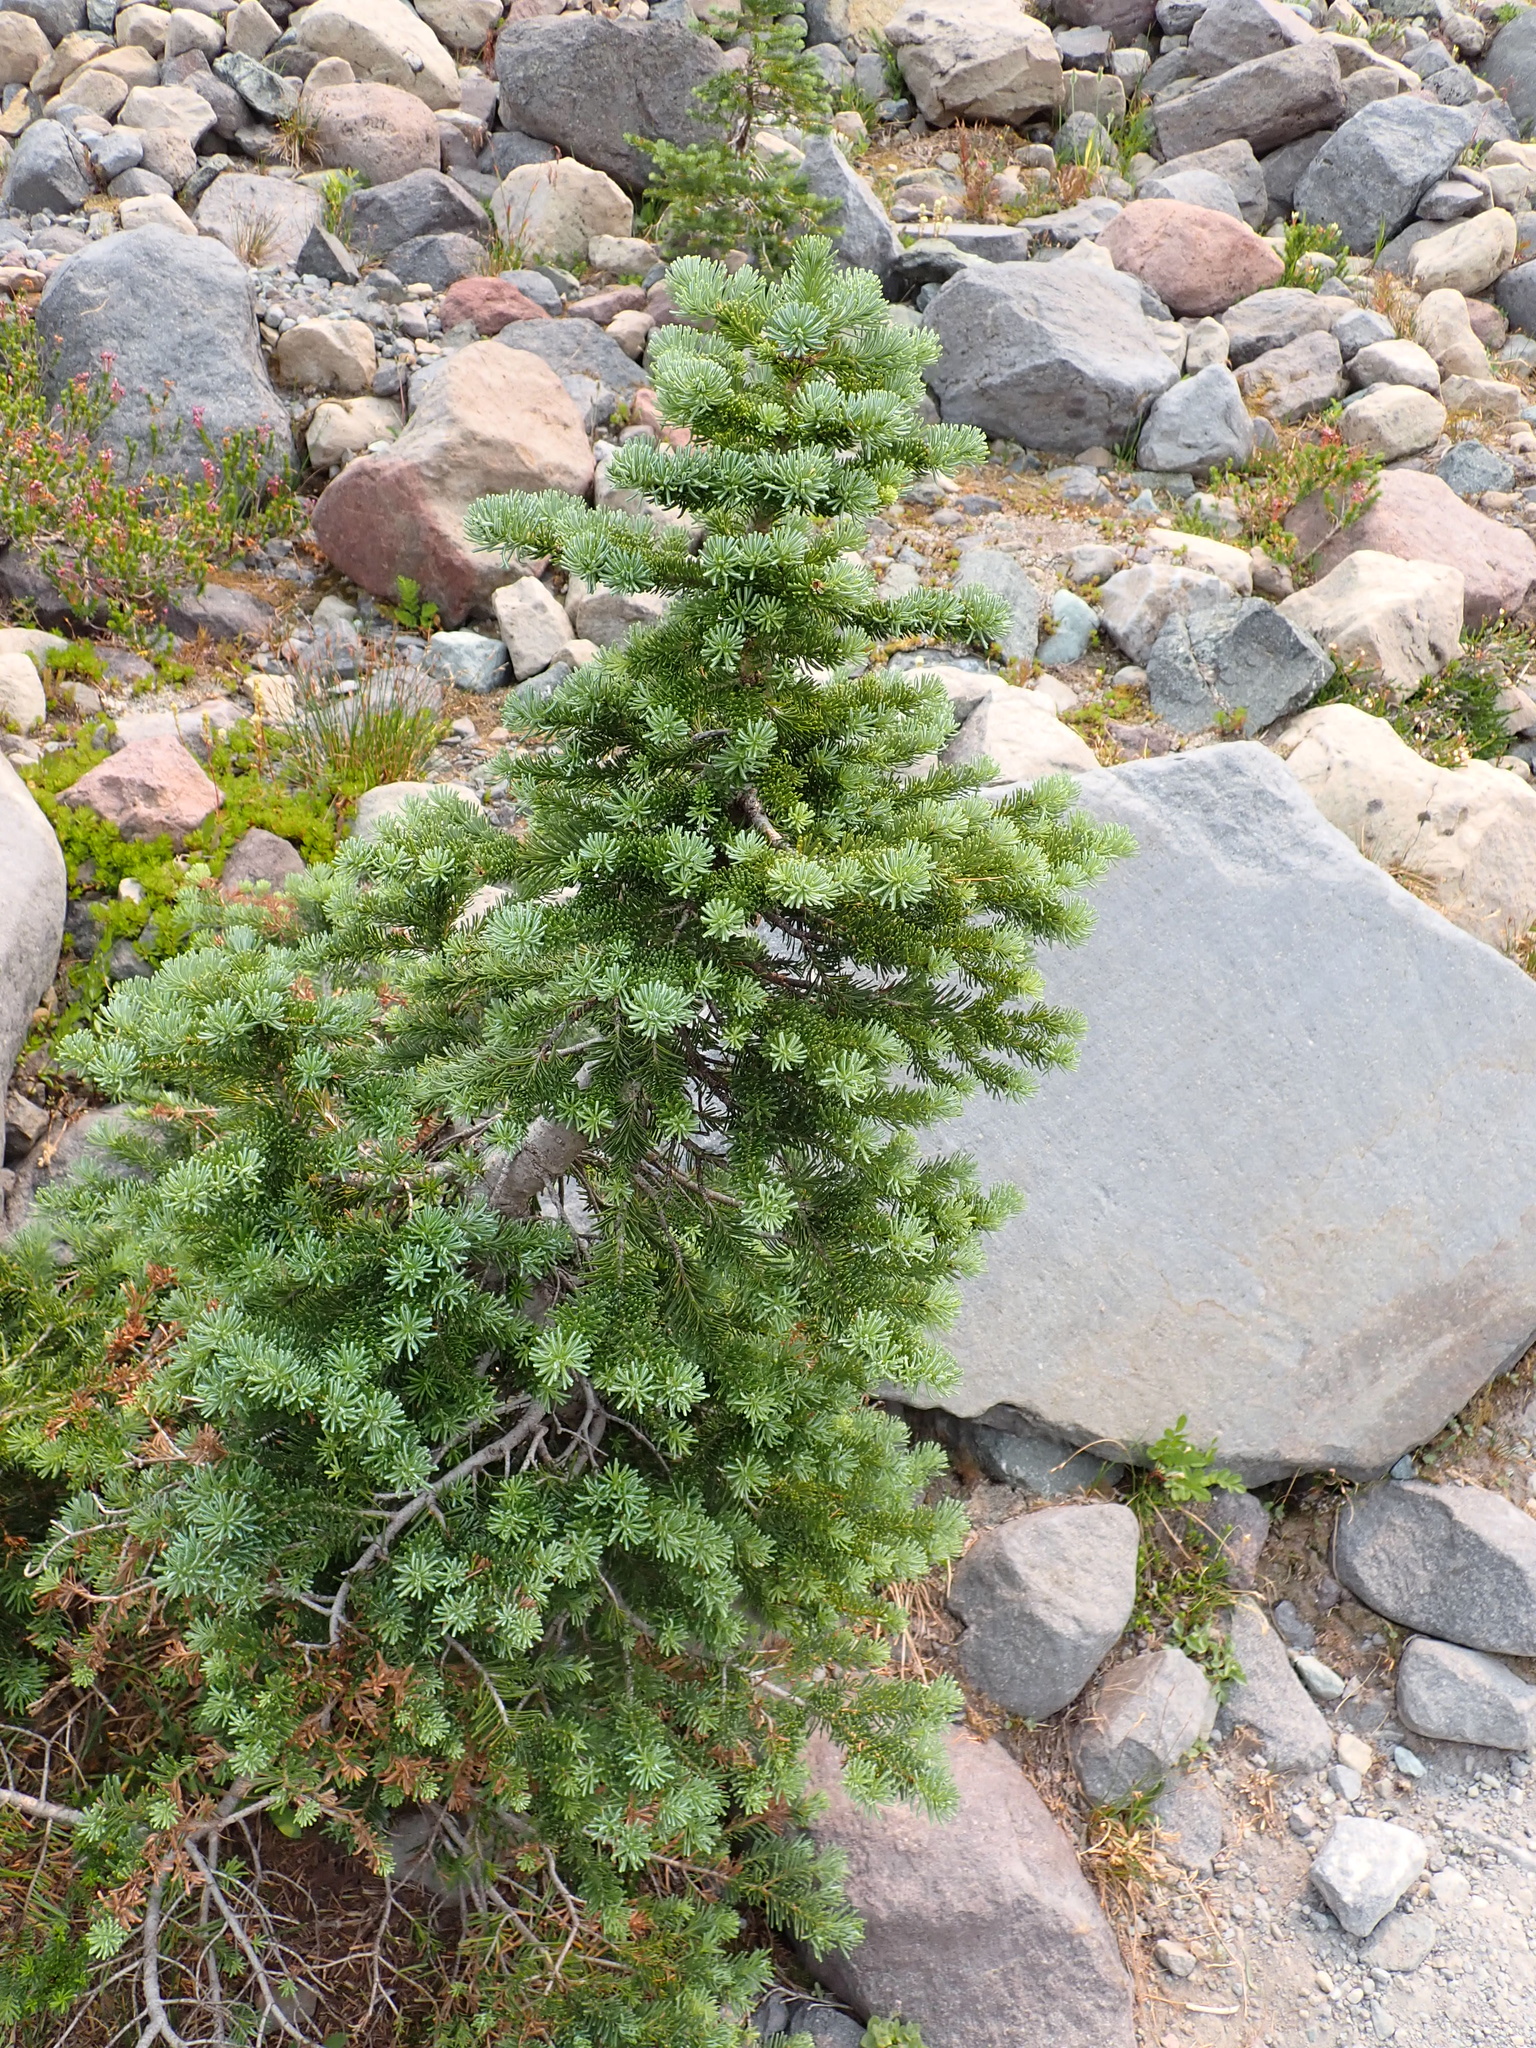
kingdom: Plantae
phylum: Tracheophyta
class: Pinopsida
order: Pinales
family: Pinaceae
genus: Abies
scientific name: Abies lasiocarpa
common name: Subalpine fir
